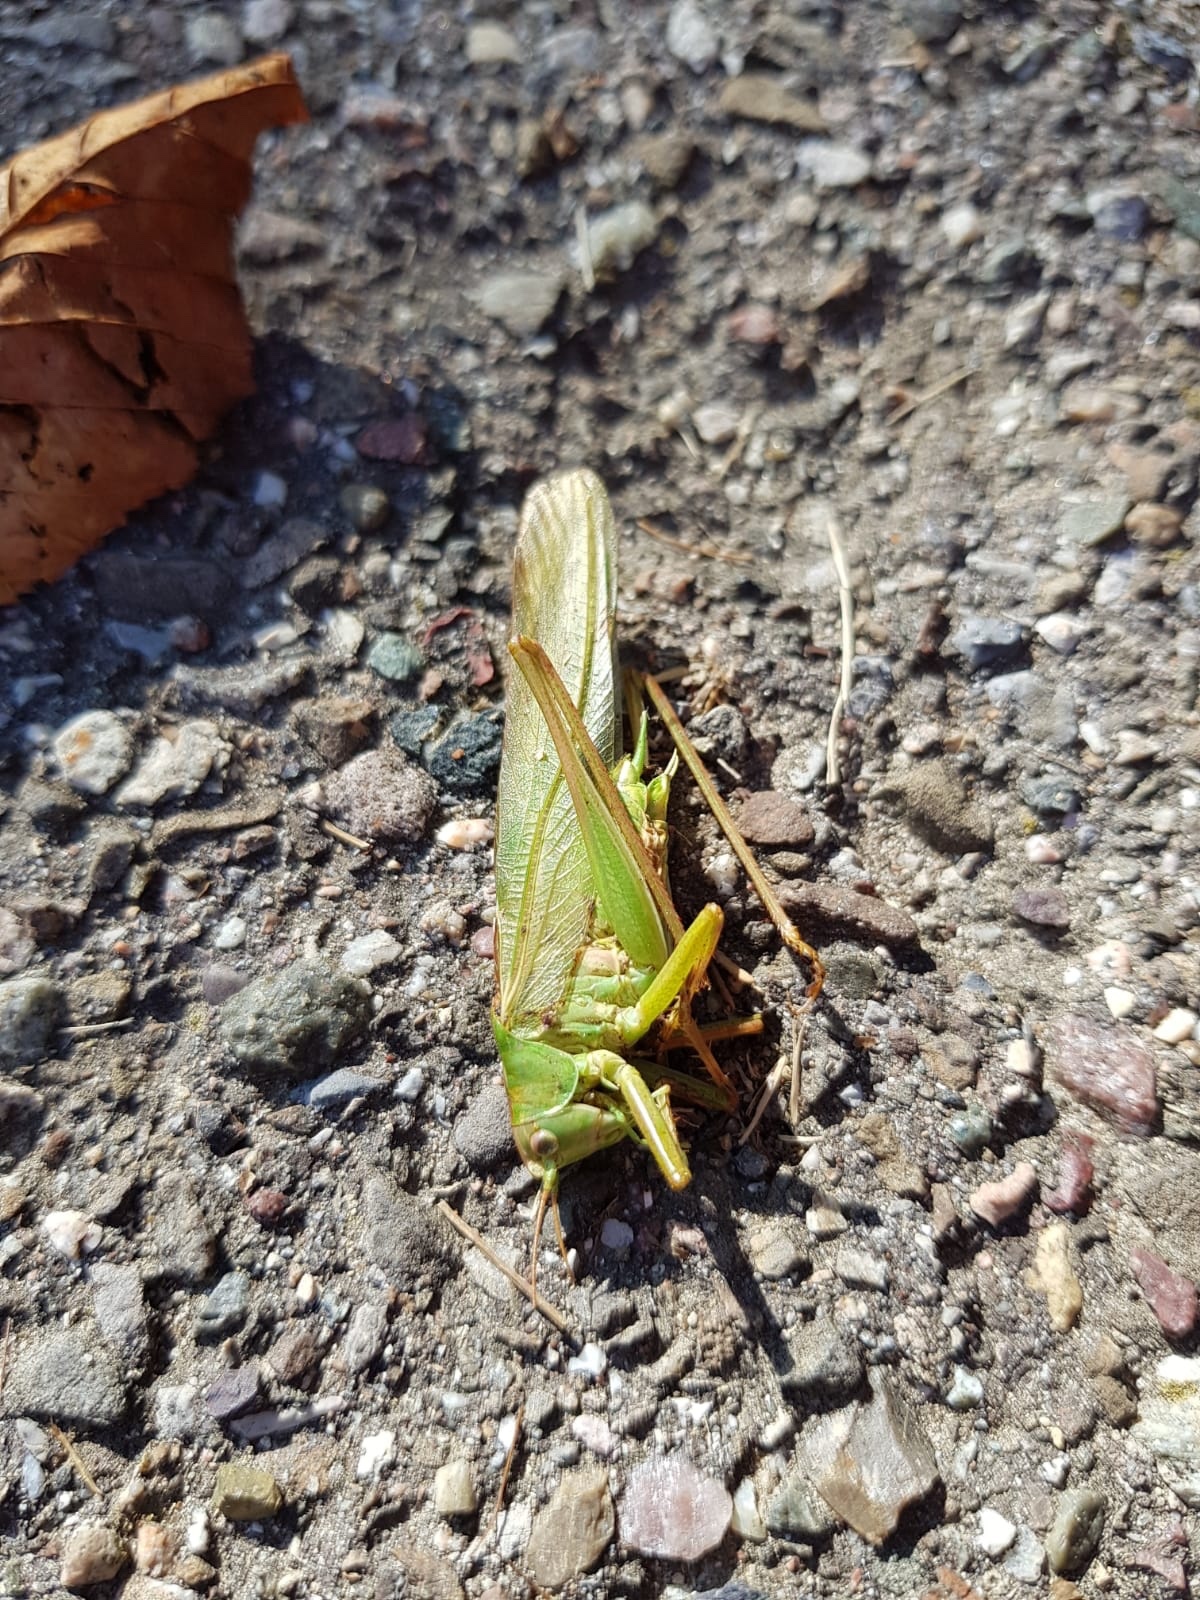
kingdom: Animalia
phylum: Arthropoda
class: Insecta
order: Orthoptera
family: Tettigoniidae
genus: Tettigonia
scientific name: Tettigonia viridissima
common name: Great green bush-cricket
